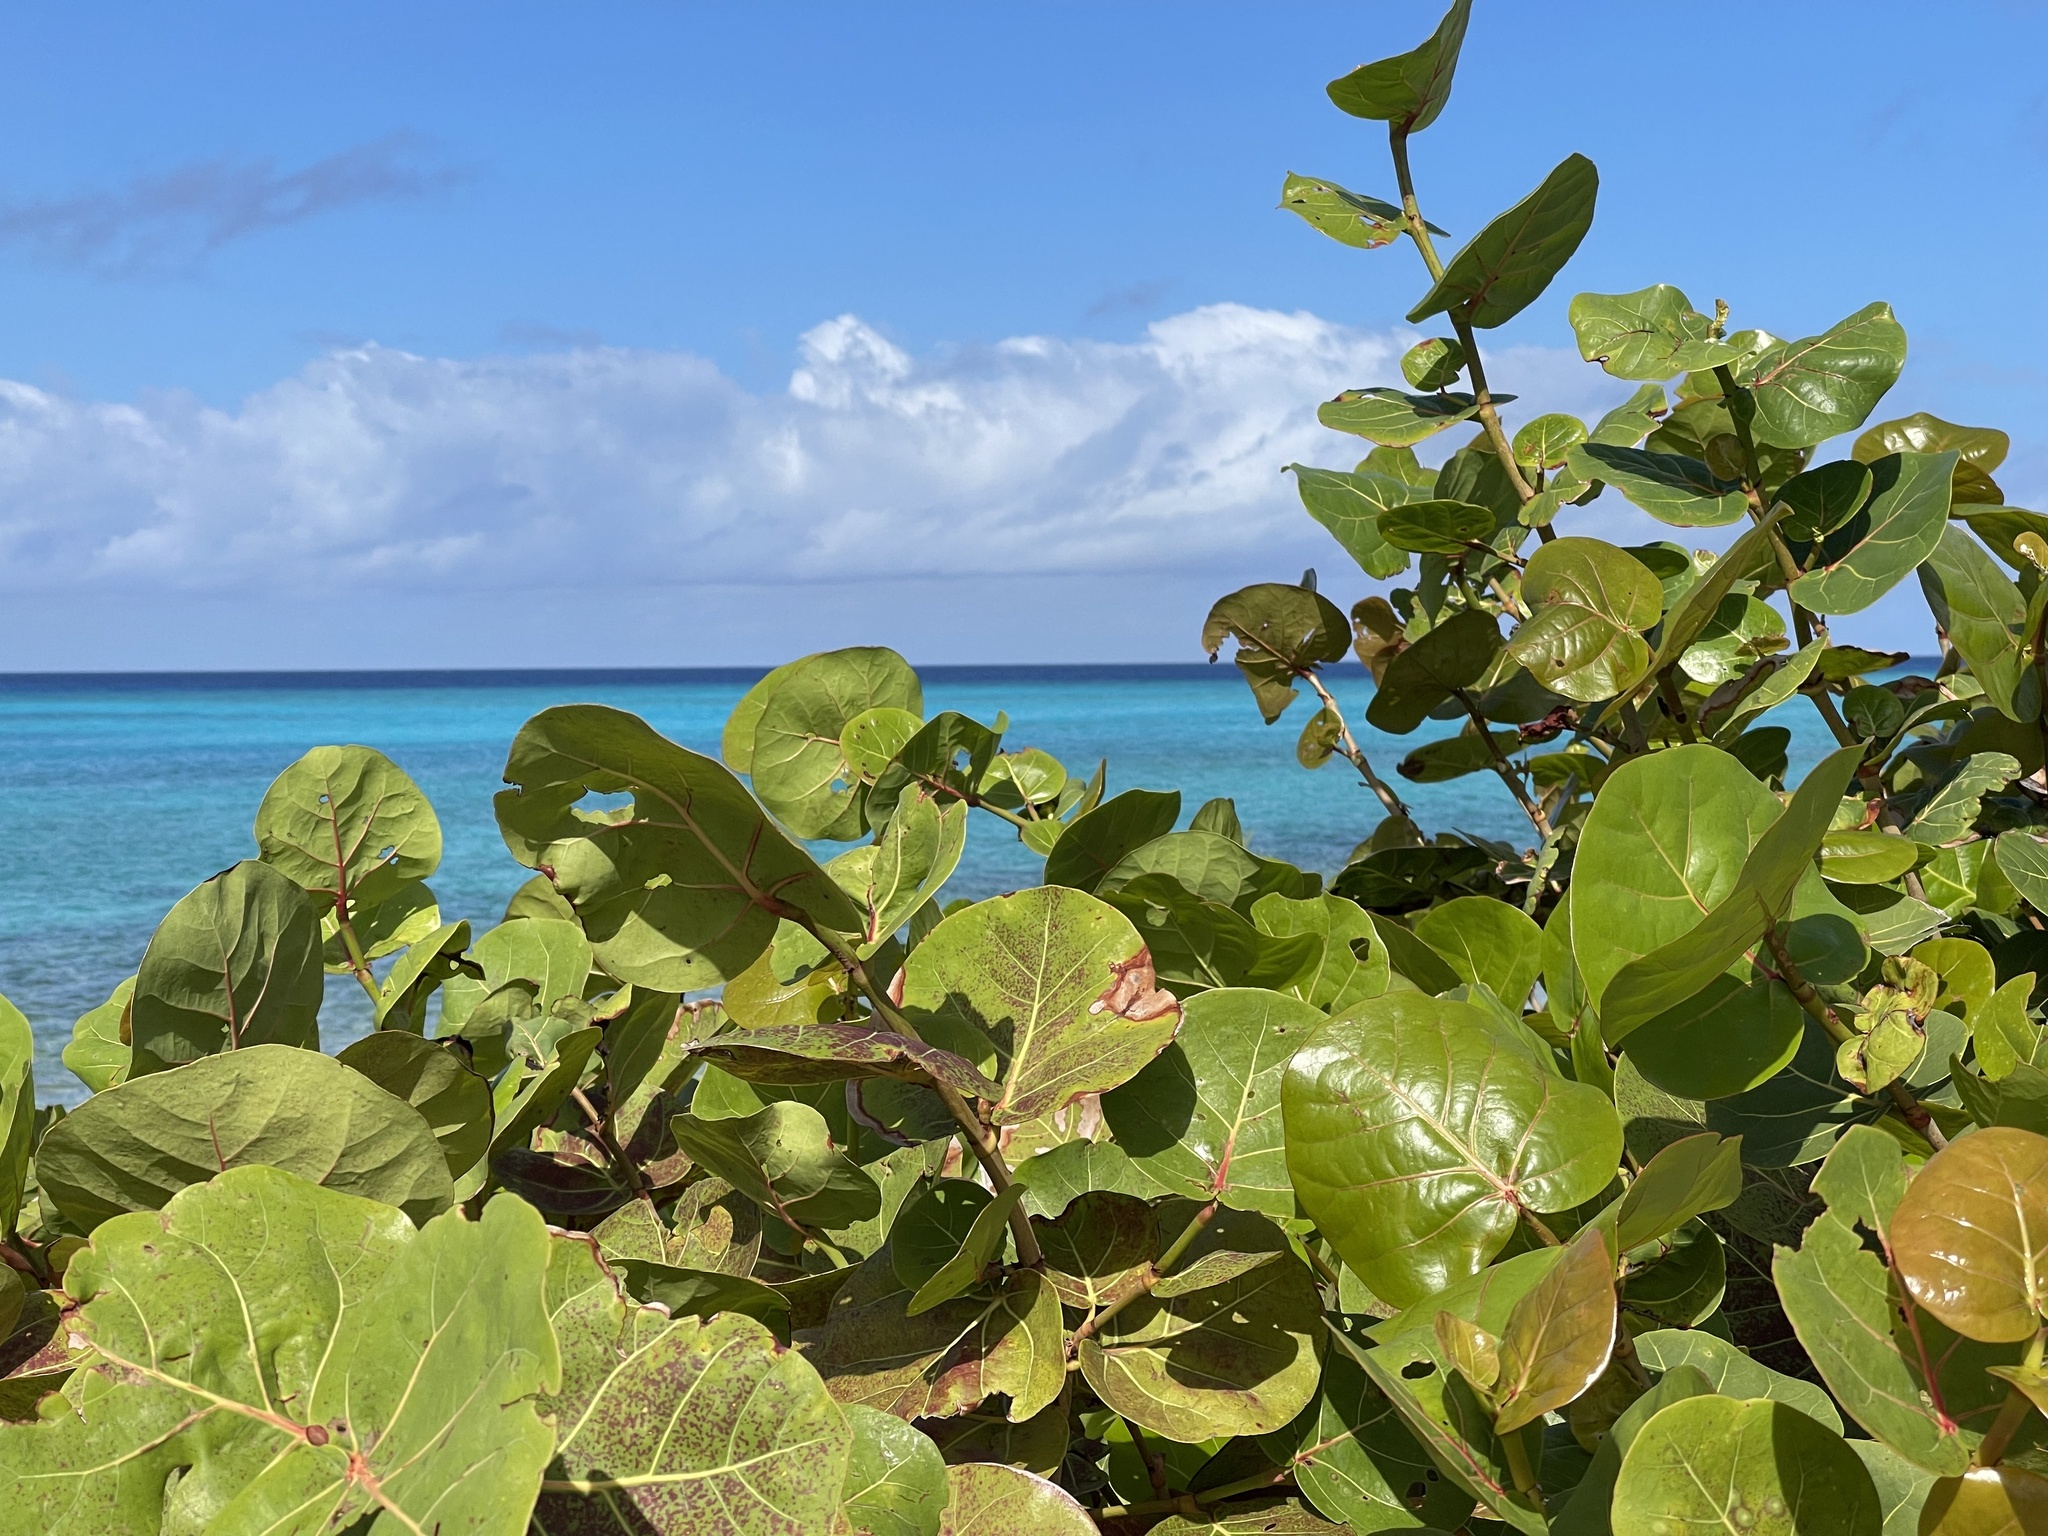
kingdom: Plantae
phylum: Tracheophyta
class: Magnoliopsida
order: Caryophyllales
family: Polygonaceae
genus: Coccoloba
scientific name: Coccoloba uvifera
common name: Seagrape
